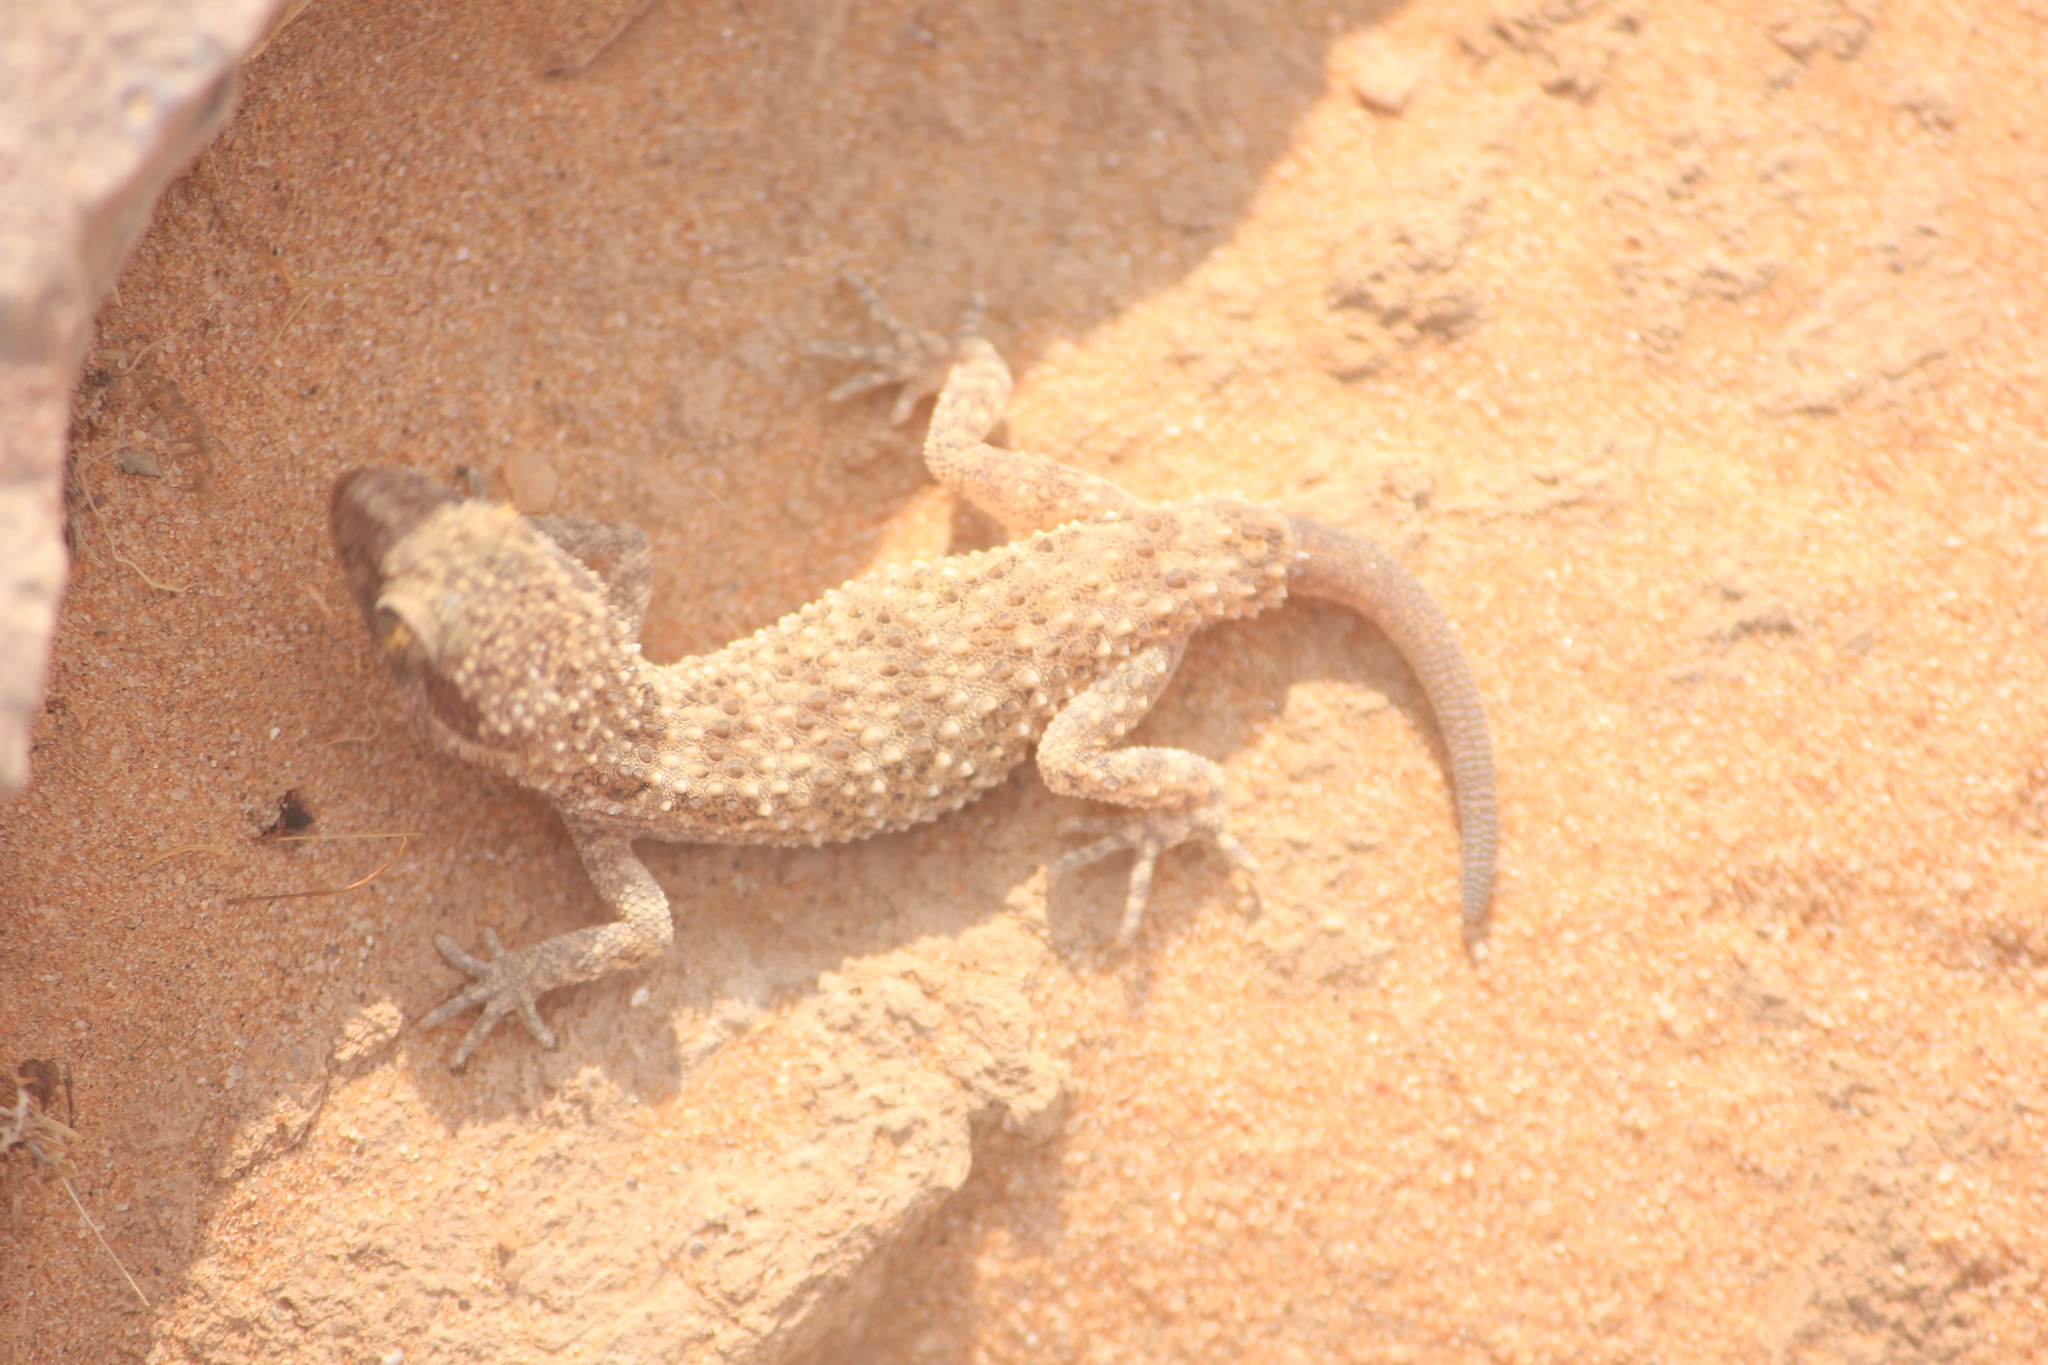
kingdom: Animalia
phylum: Chordata
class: Squamata
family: Gekkonidae
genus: Bunopus
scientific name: Bunopus tuberculatus
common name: Southern tuberculated gecko
